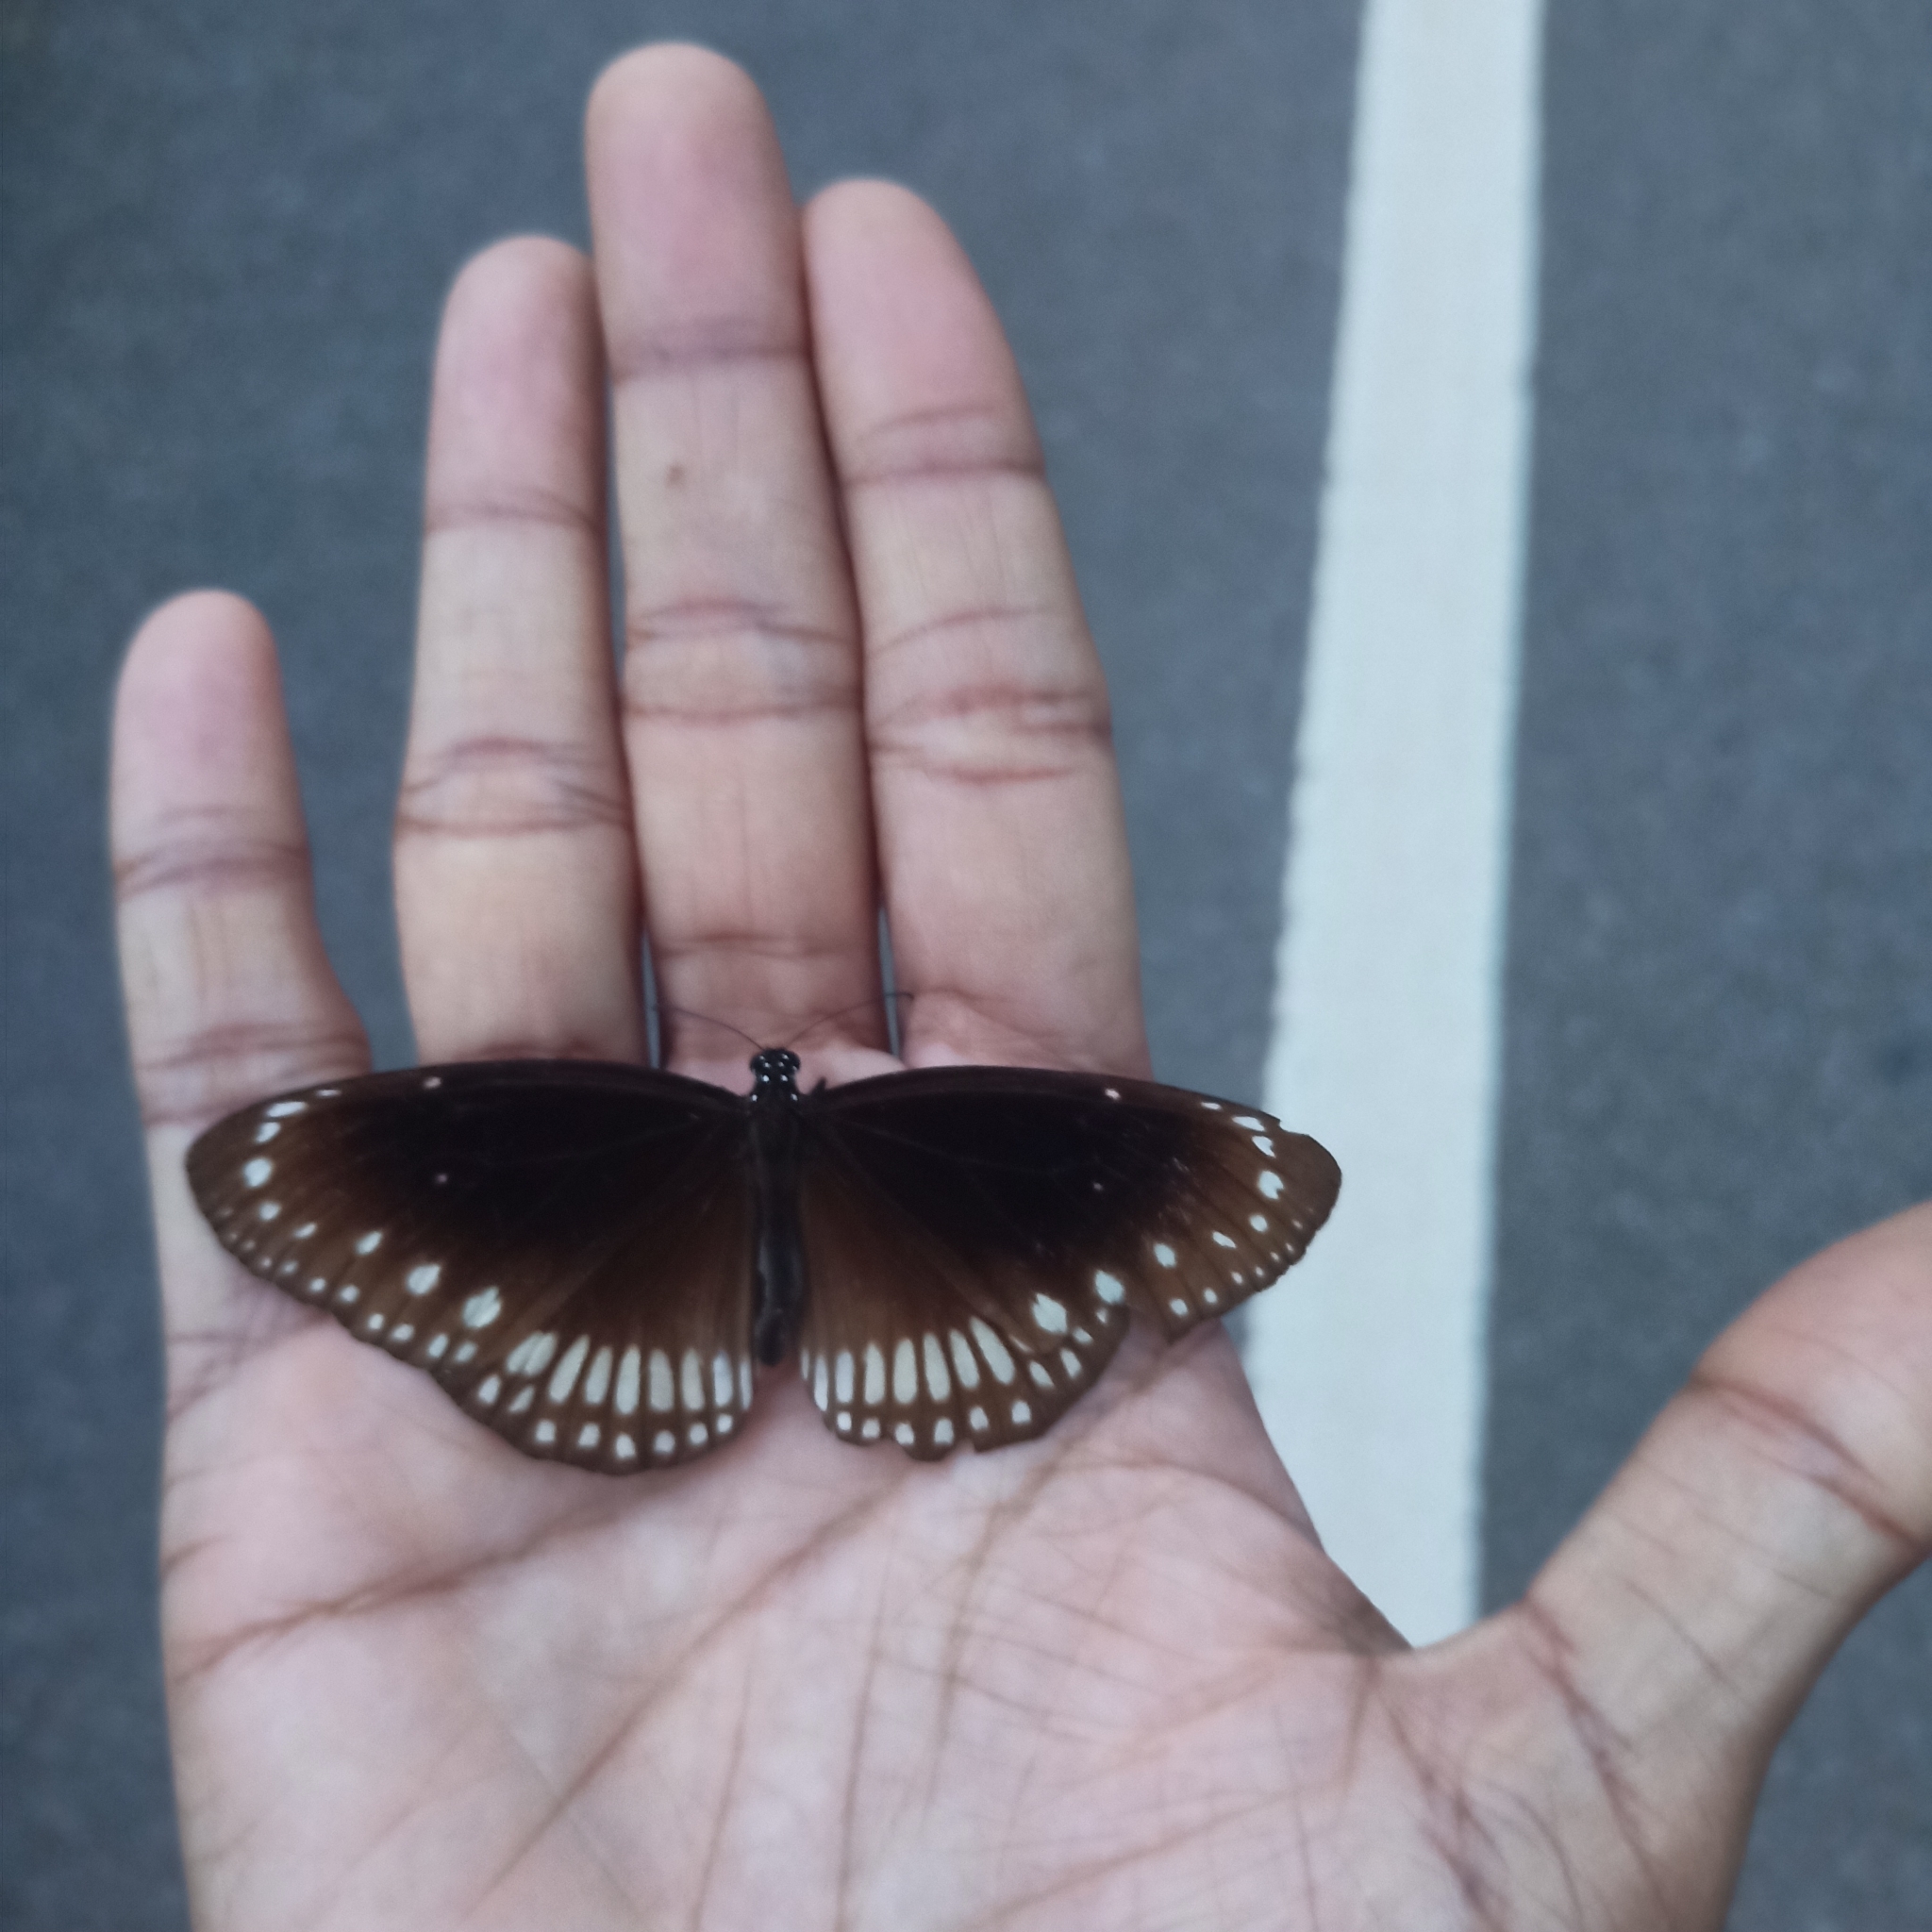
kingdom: Animalia
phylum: Arthropoda
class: Insecta
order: Lepidoptera
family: Nymphalidae
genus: Euploea
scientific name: Euploea core
